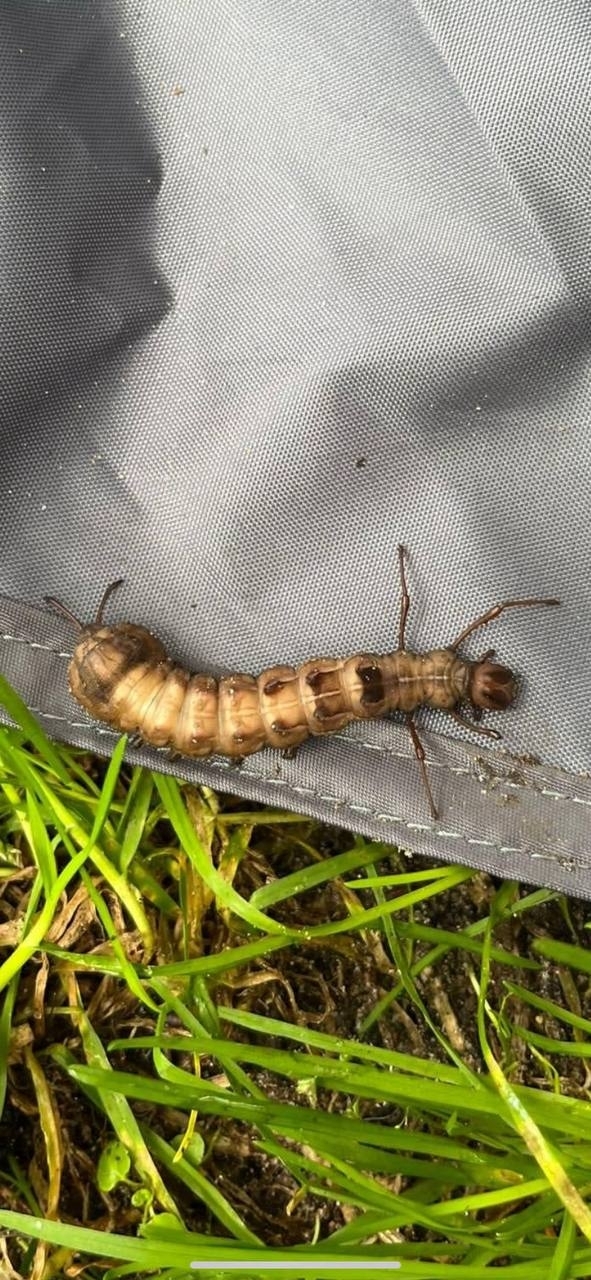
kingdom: Animalia
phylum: Arthropoda
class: Insecta
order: Lepidoptera
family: Notodontidae
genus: Stauropus
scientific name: Stauropus fagi
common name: Lobster moth
